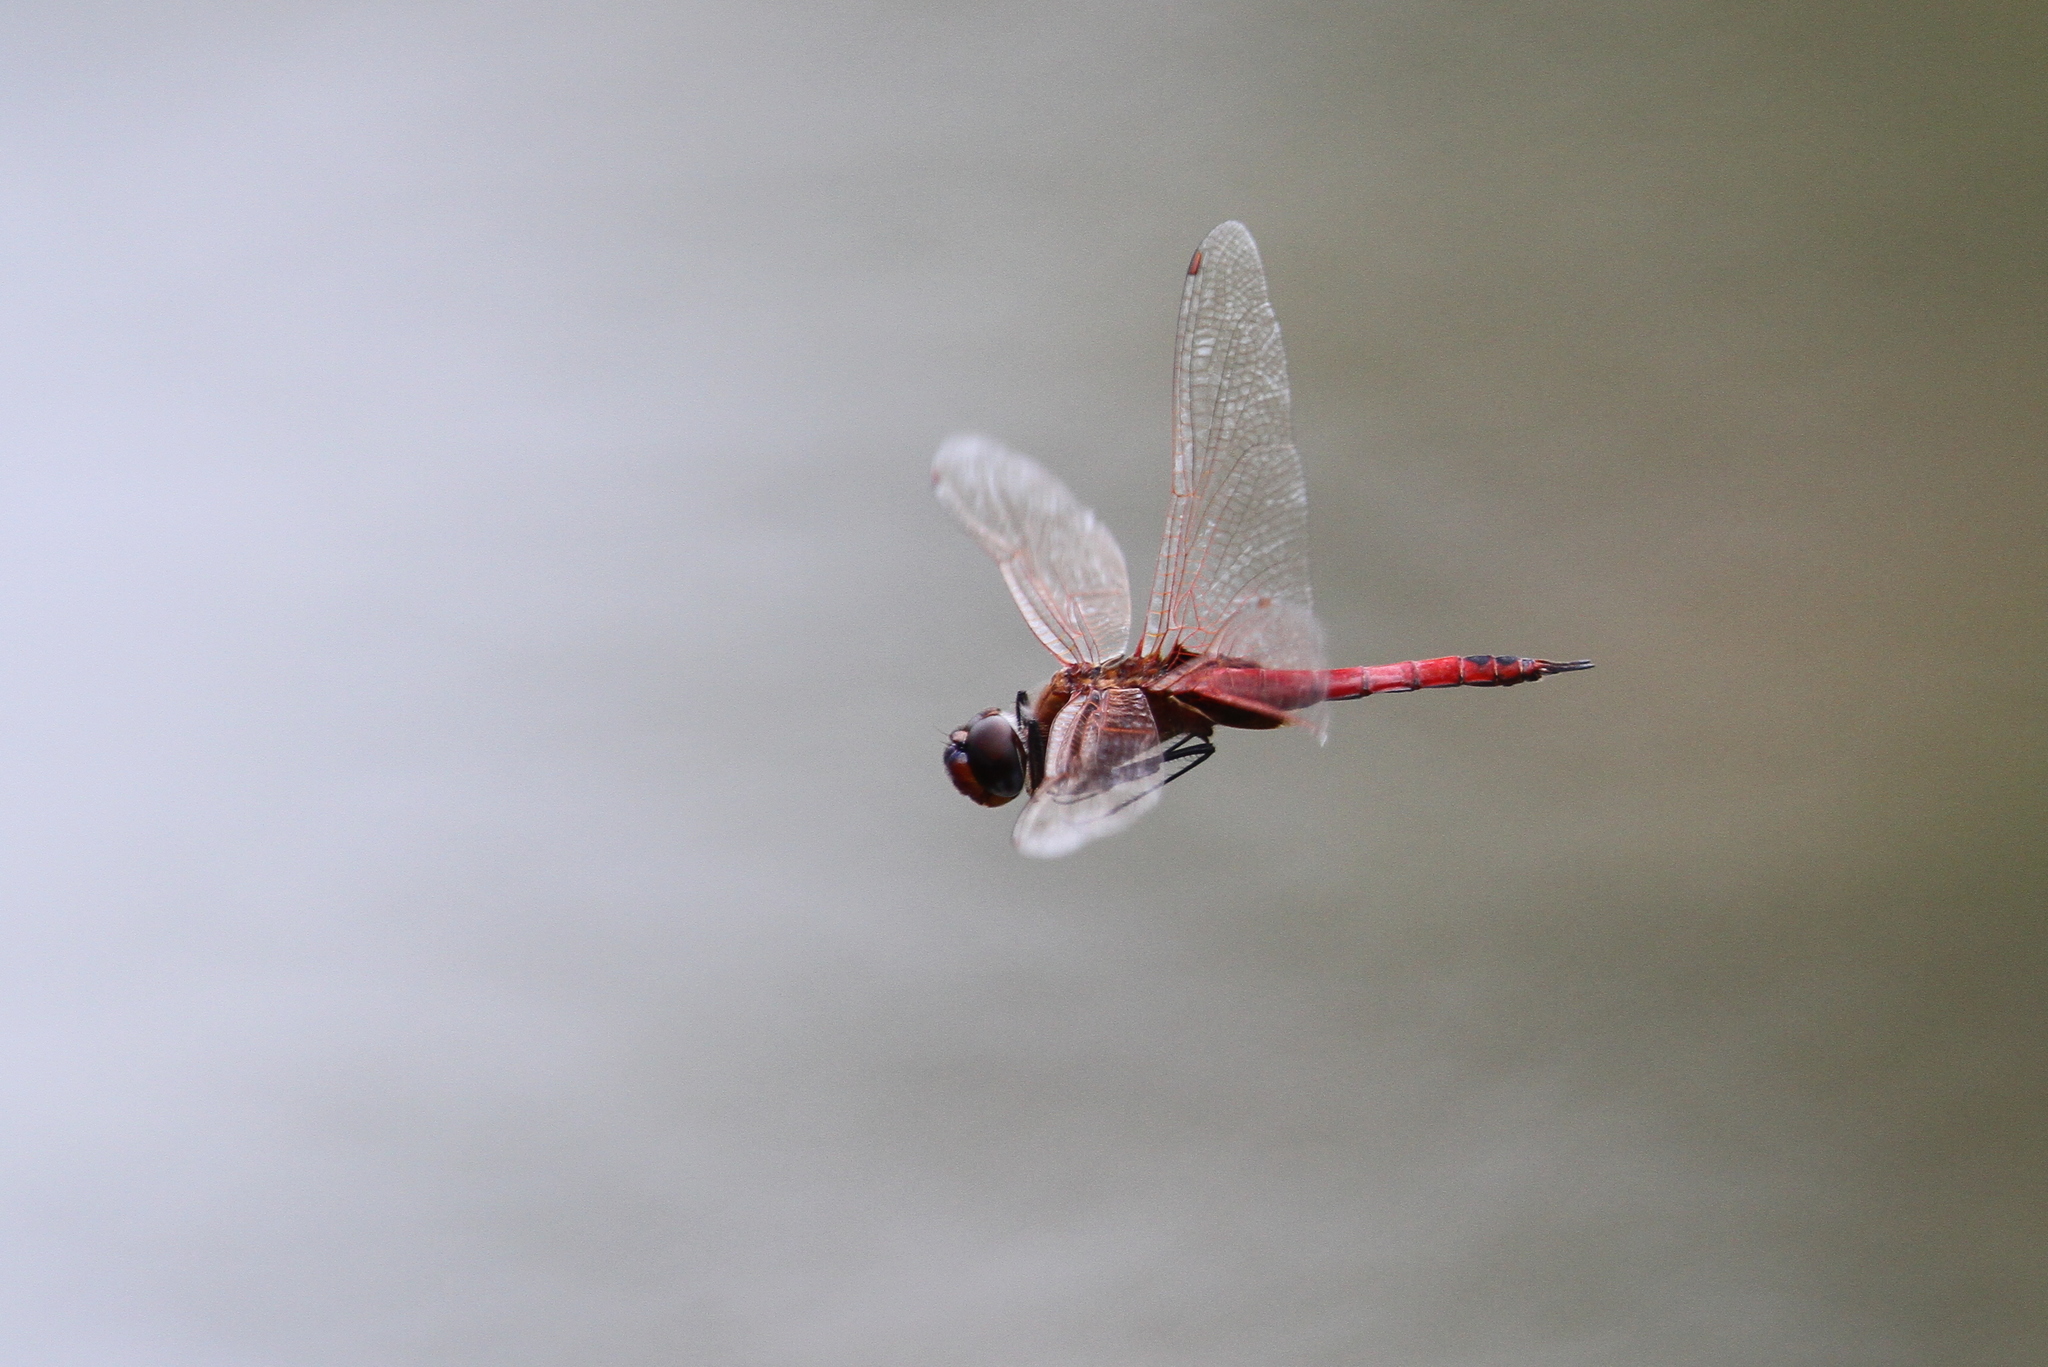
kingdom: Animalia
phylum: Arthropoda
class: Insecta
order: Odonata
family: Libellulidae
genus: Tramea
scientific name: Tramea limbata
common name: Ferruginous glider
